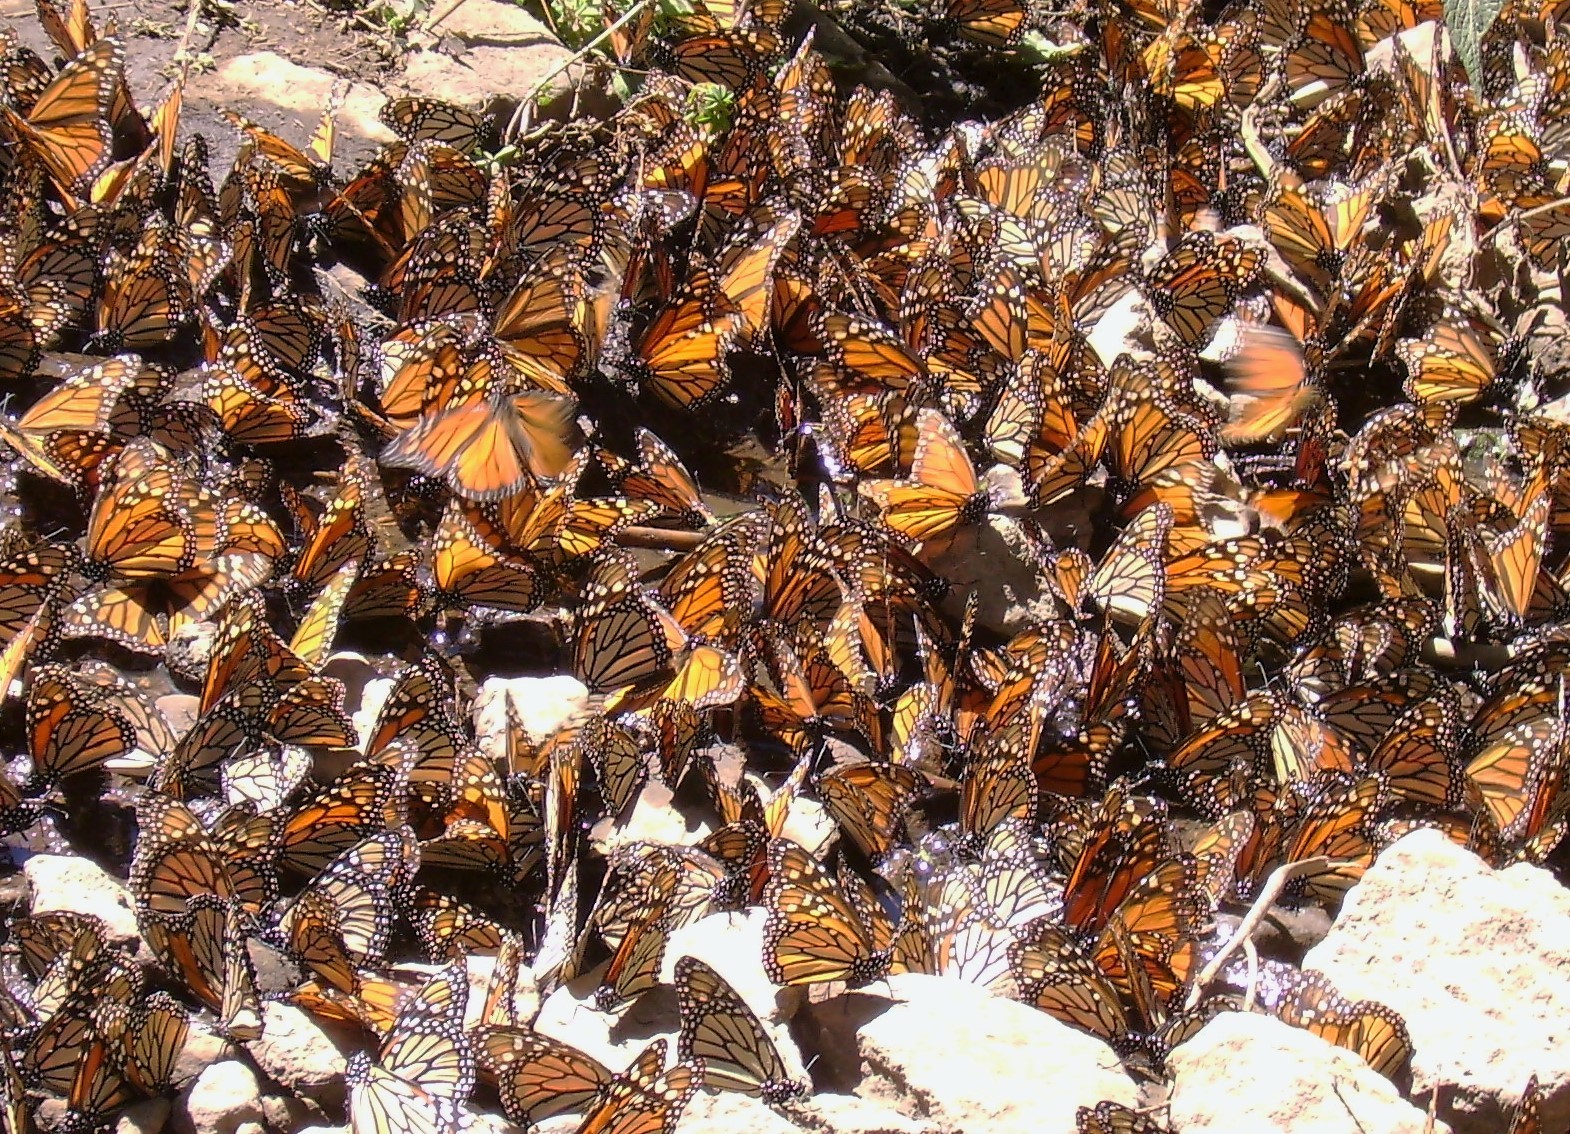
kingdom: Animalia
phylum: Arthropoda
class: Insecta
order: Lepidoptera
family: Nymphalidae
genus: Danaus
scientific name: Danaus plexippus
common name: Monarch
